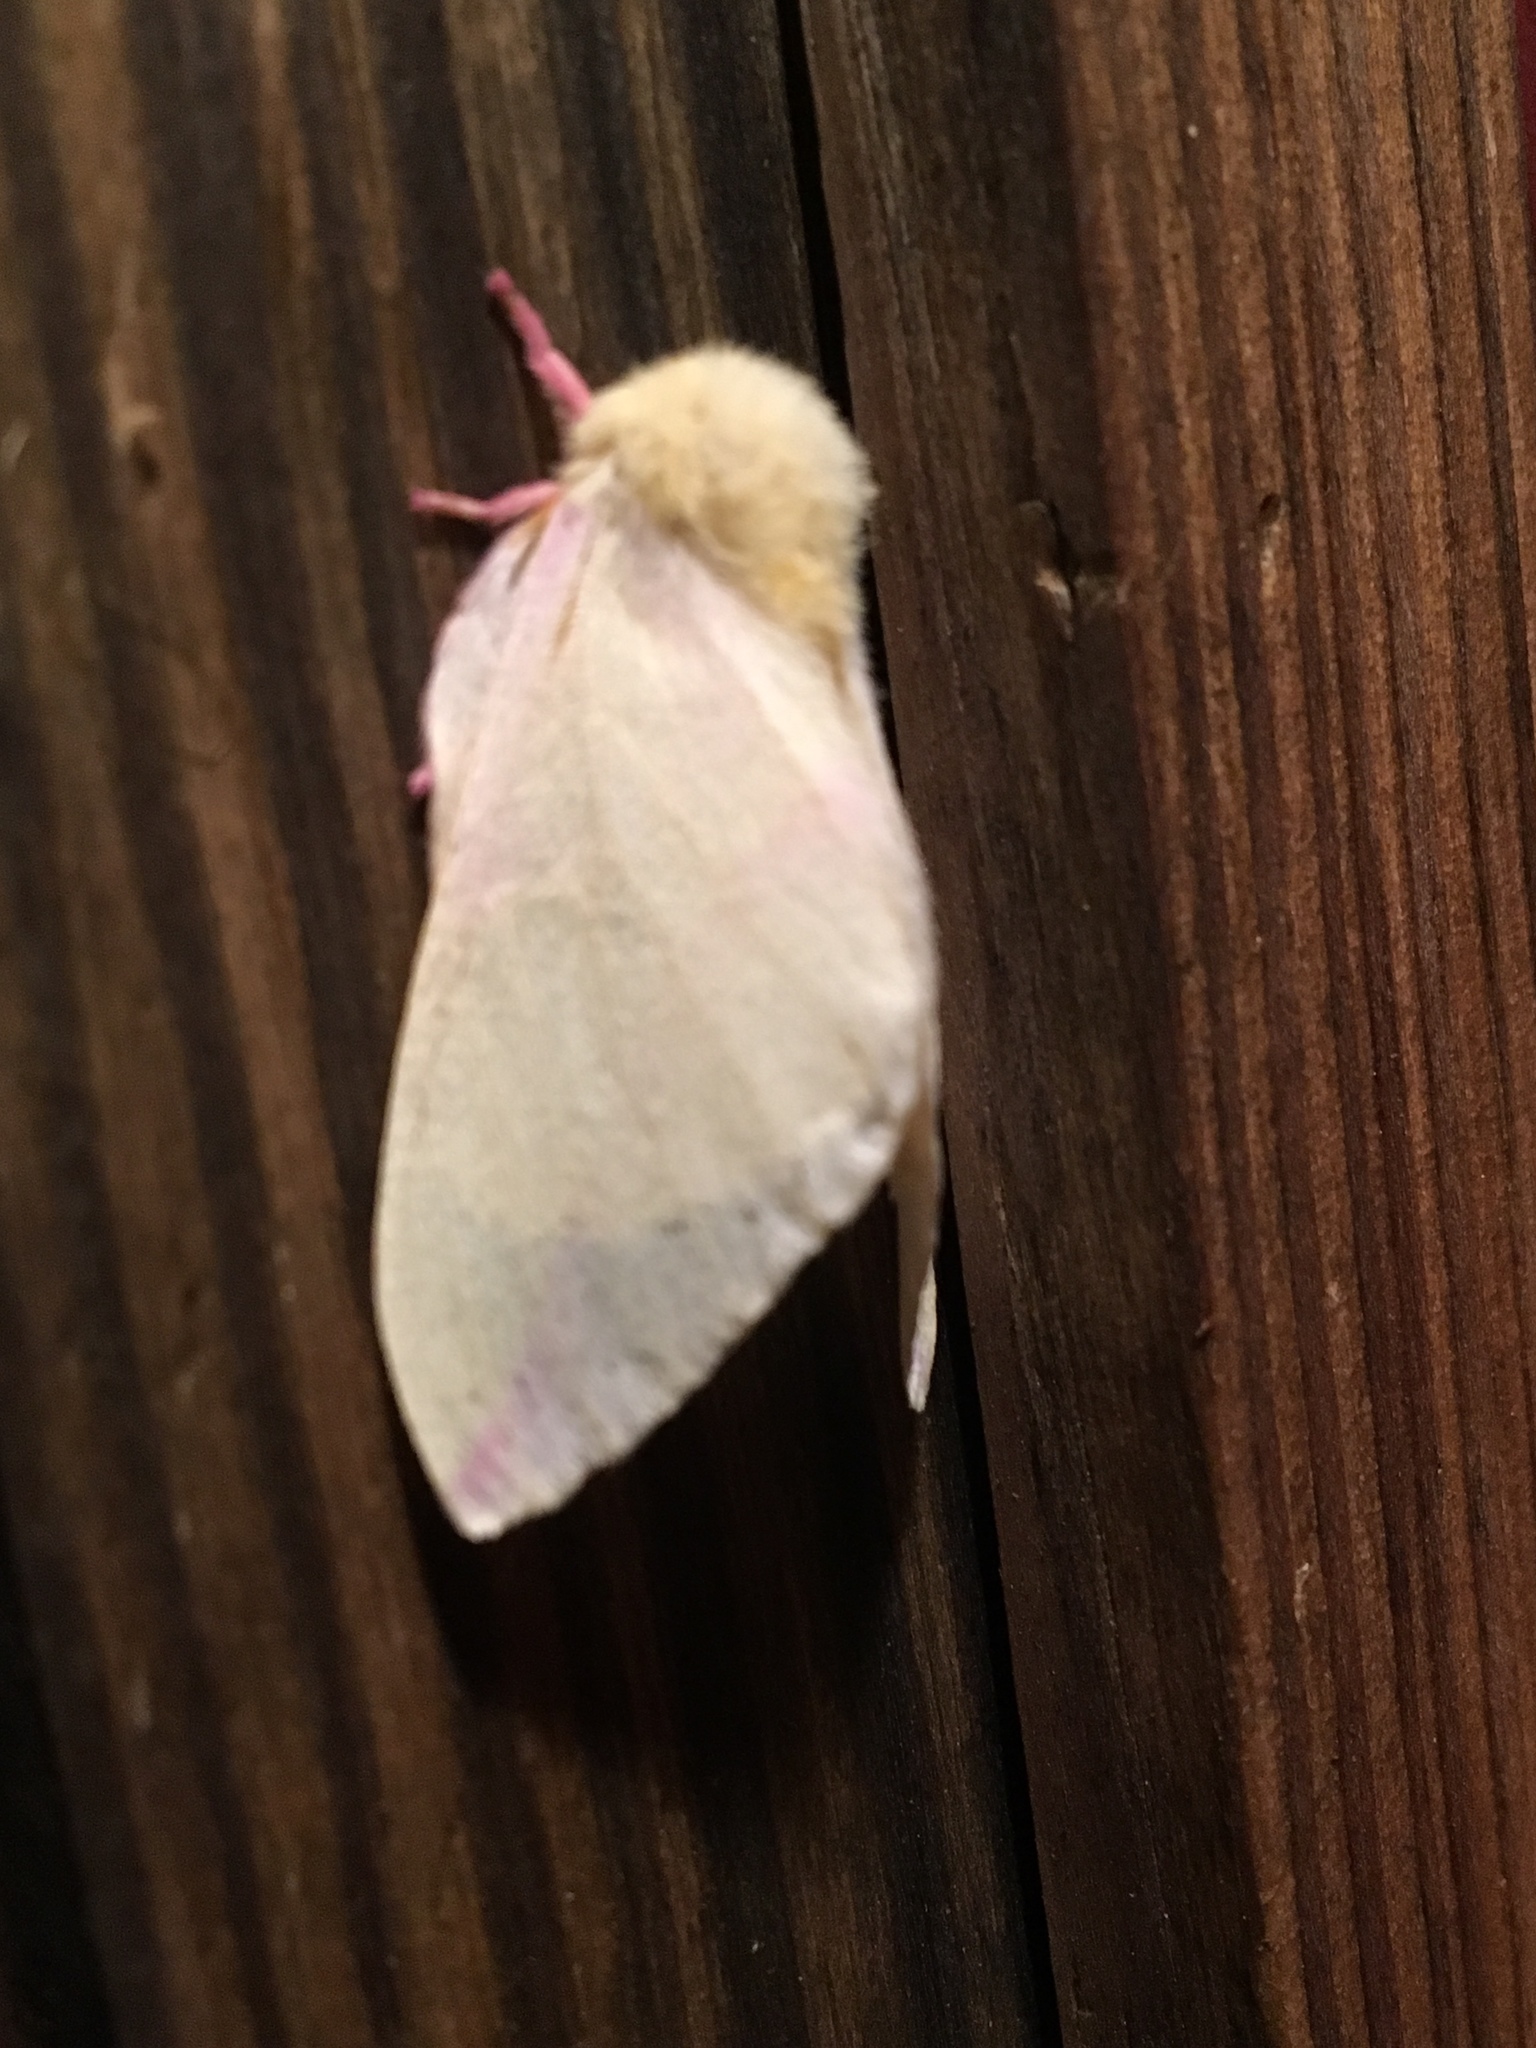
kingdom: Animalia
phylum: Arthropoda
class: Insecta
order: Lepidoptera
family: Saturniidae
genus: Dryocampa
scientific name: Dryocampa rubicunda
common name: Rosy maple moth
